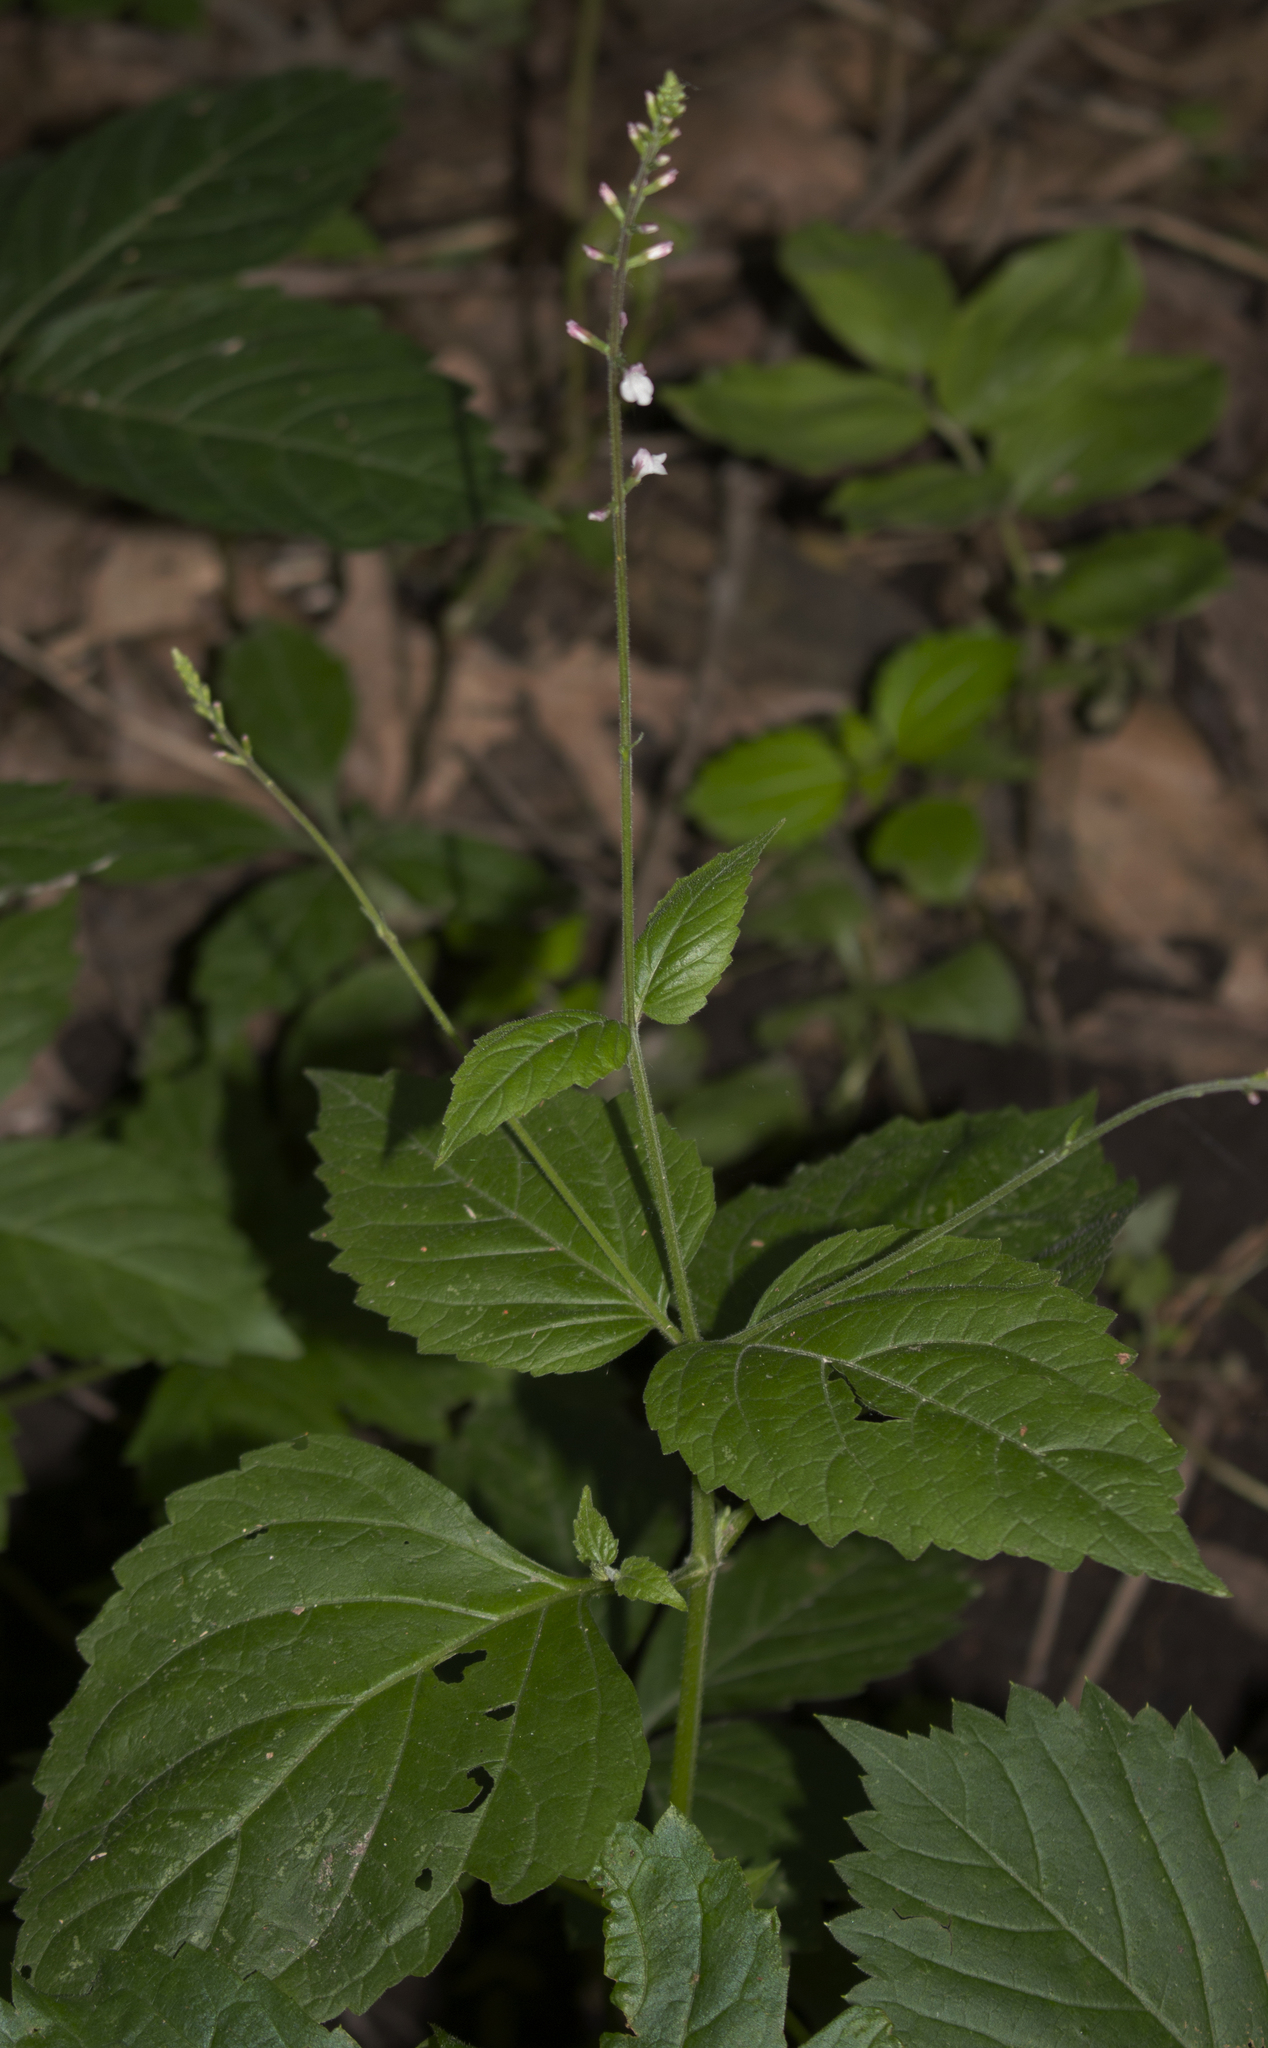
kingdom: Plantae
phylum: Tracheophyta
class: Magnoliopsida
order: Lamiales
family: Phrymaceae
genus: Phryma
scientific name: Phryma leptostachya
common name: American lopseed
